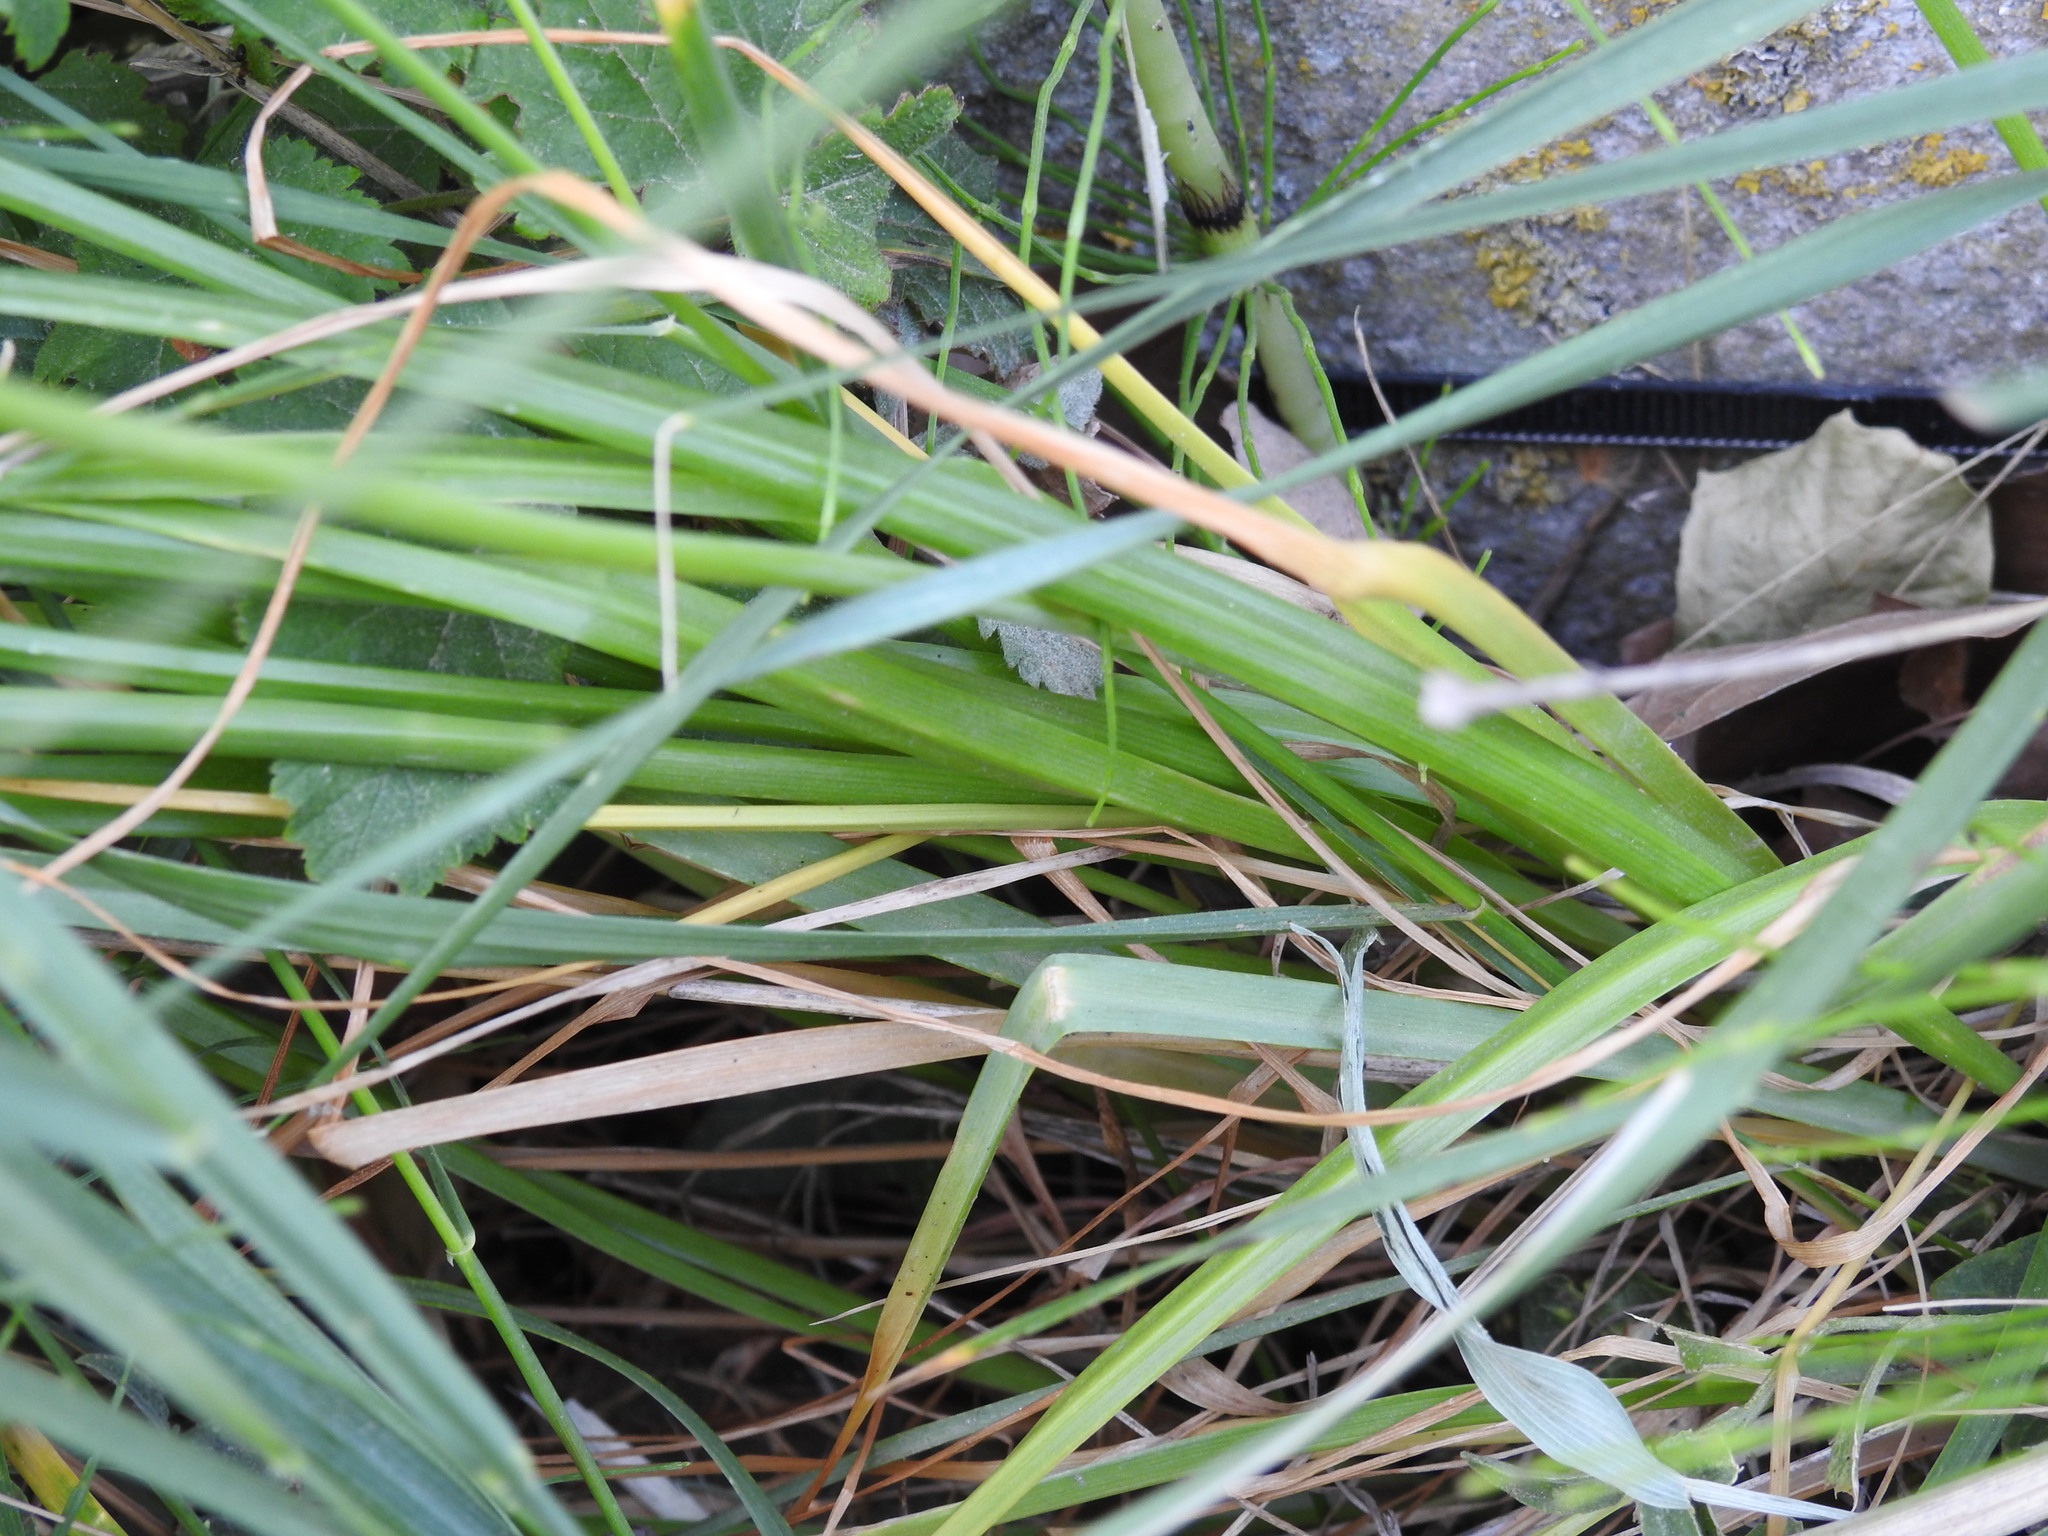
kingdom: Plantae
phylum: Tracheophyta
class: Liliopsida
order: Asparagales
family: Amaryllidaceae
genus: Allium
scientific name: Allium roseum
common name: Rosy garlic
